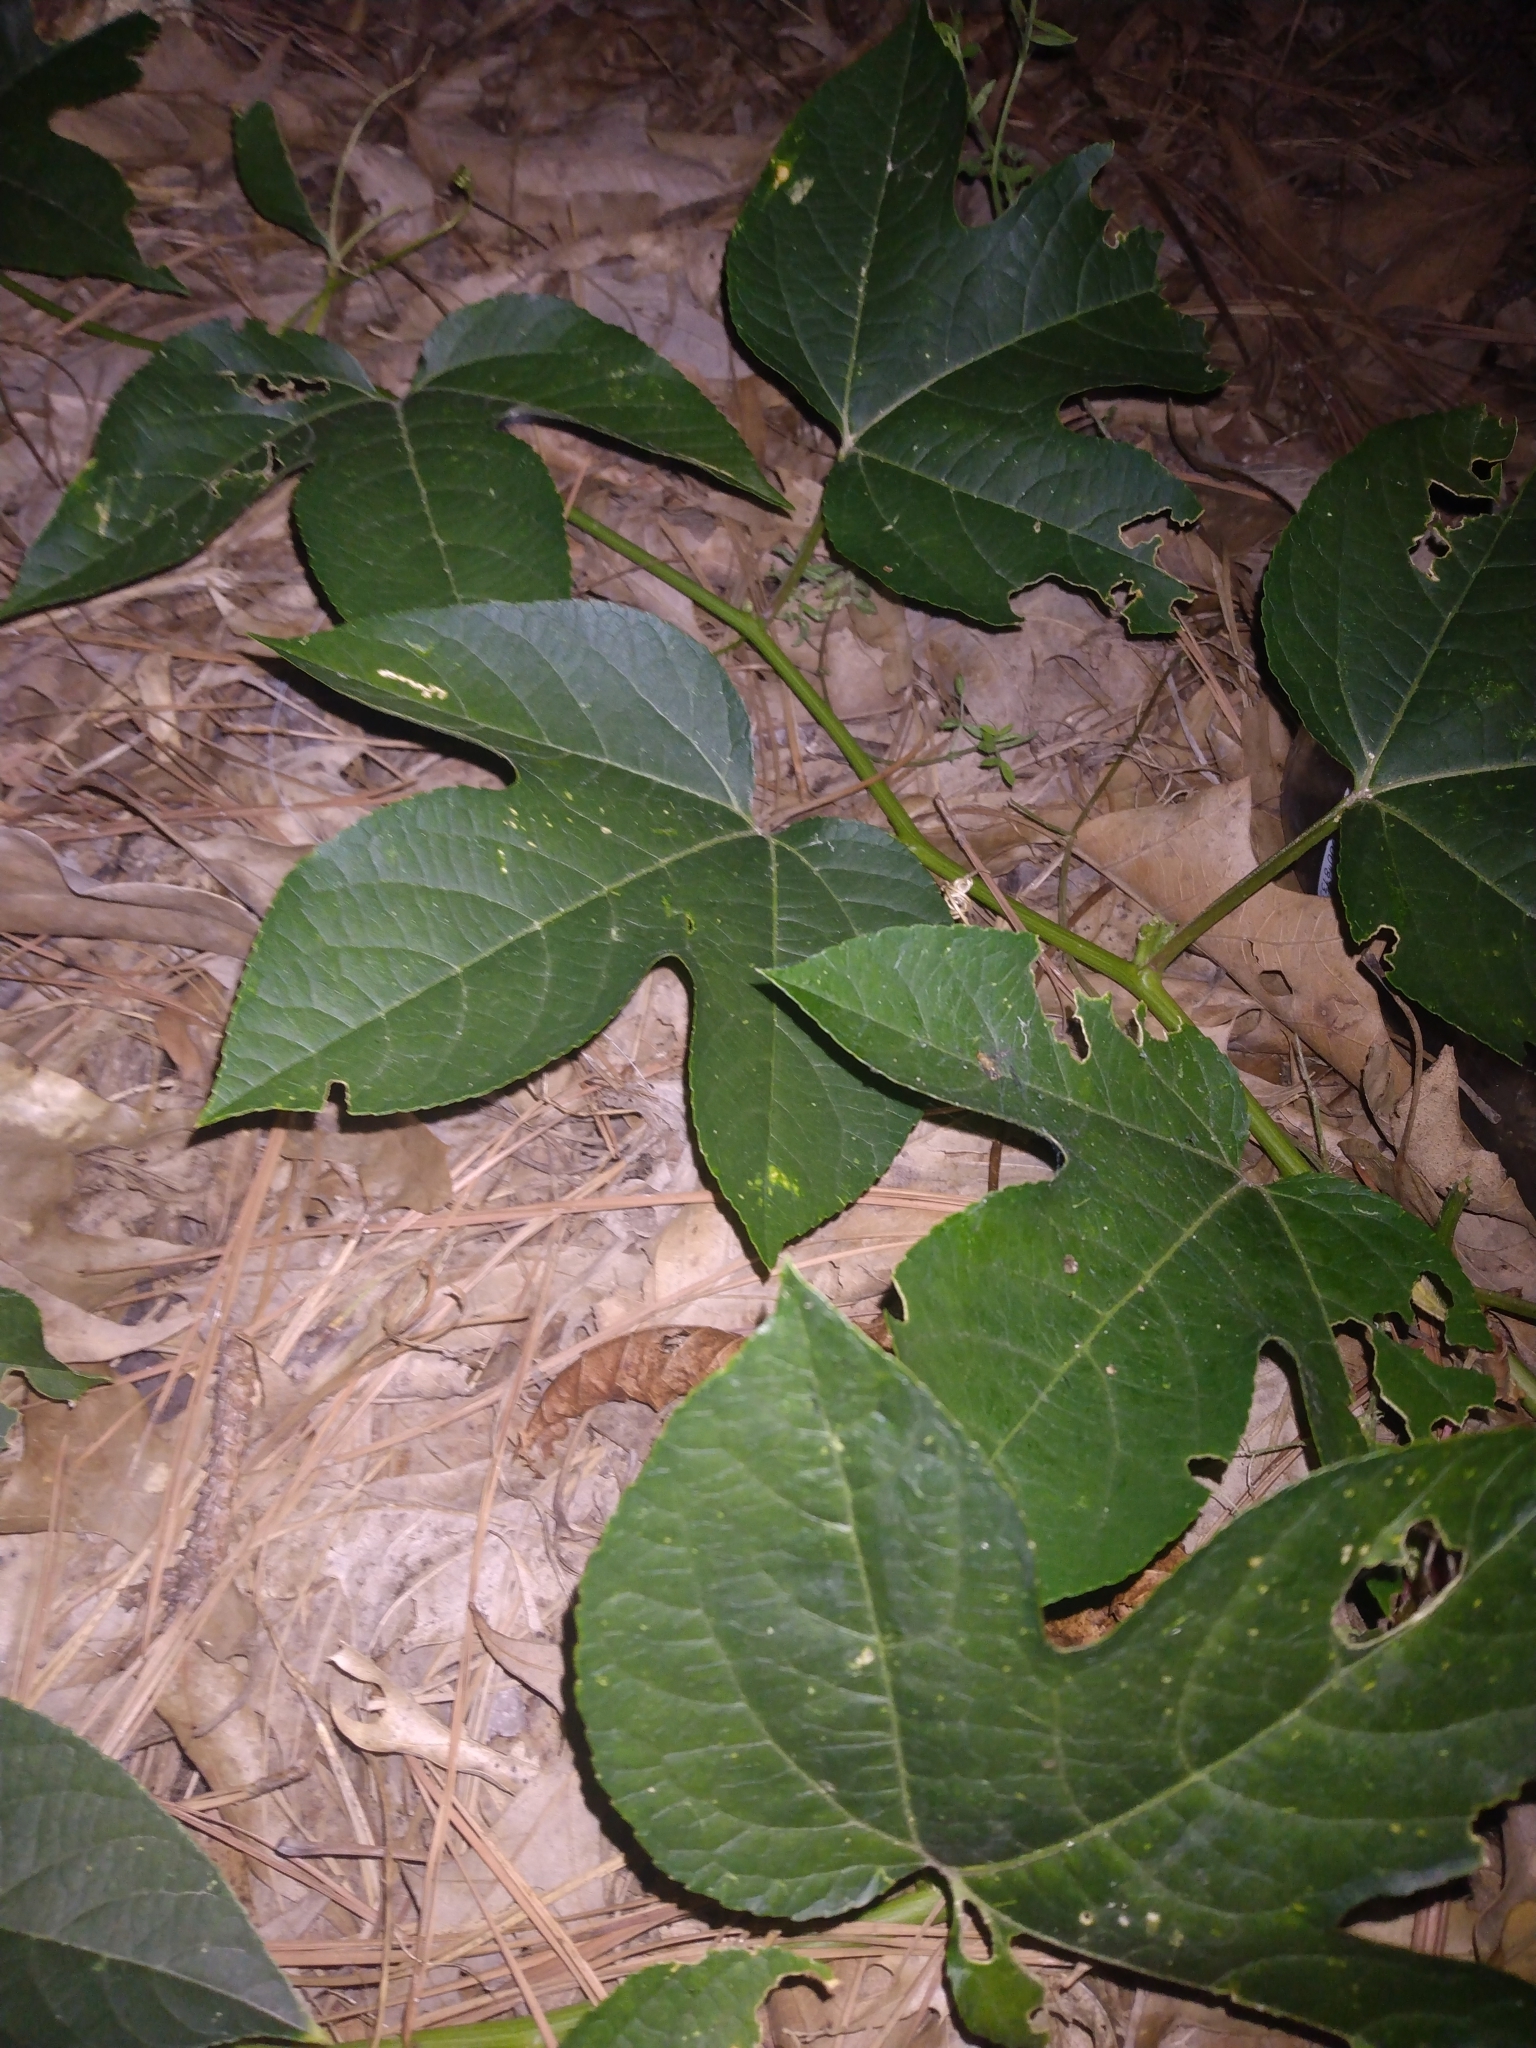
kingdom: Plantae
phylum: Tracheophyta
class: Magnoliopsida
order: Malpighiales
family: Passifloraceae
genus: Passiflora
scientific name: Passiflora incarnata
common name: Apricot-vine
